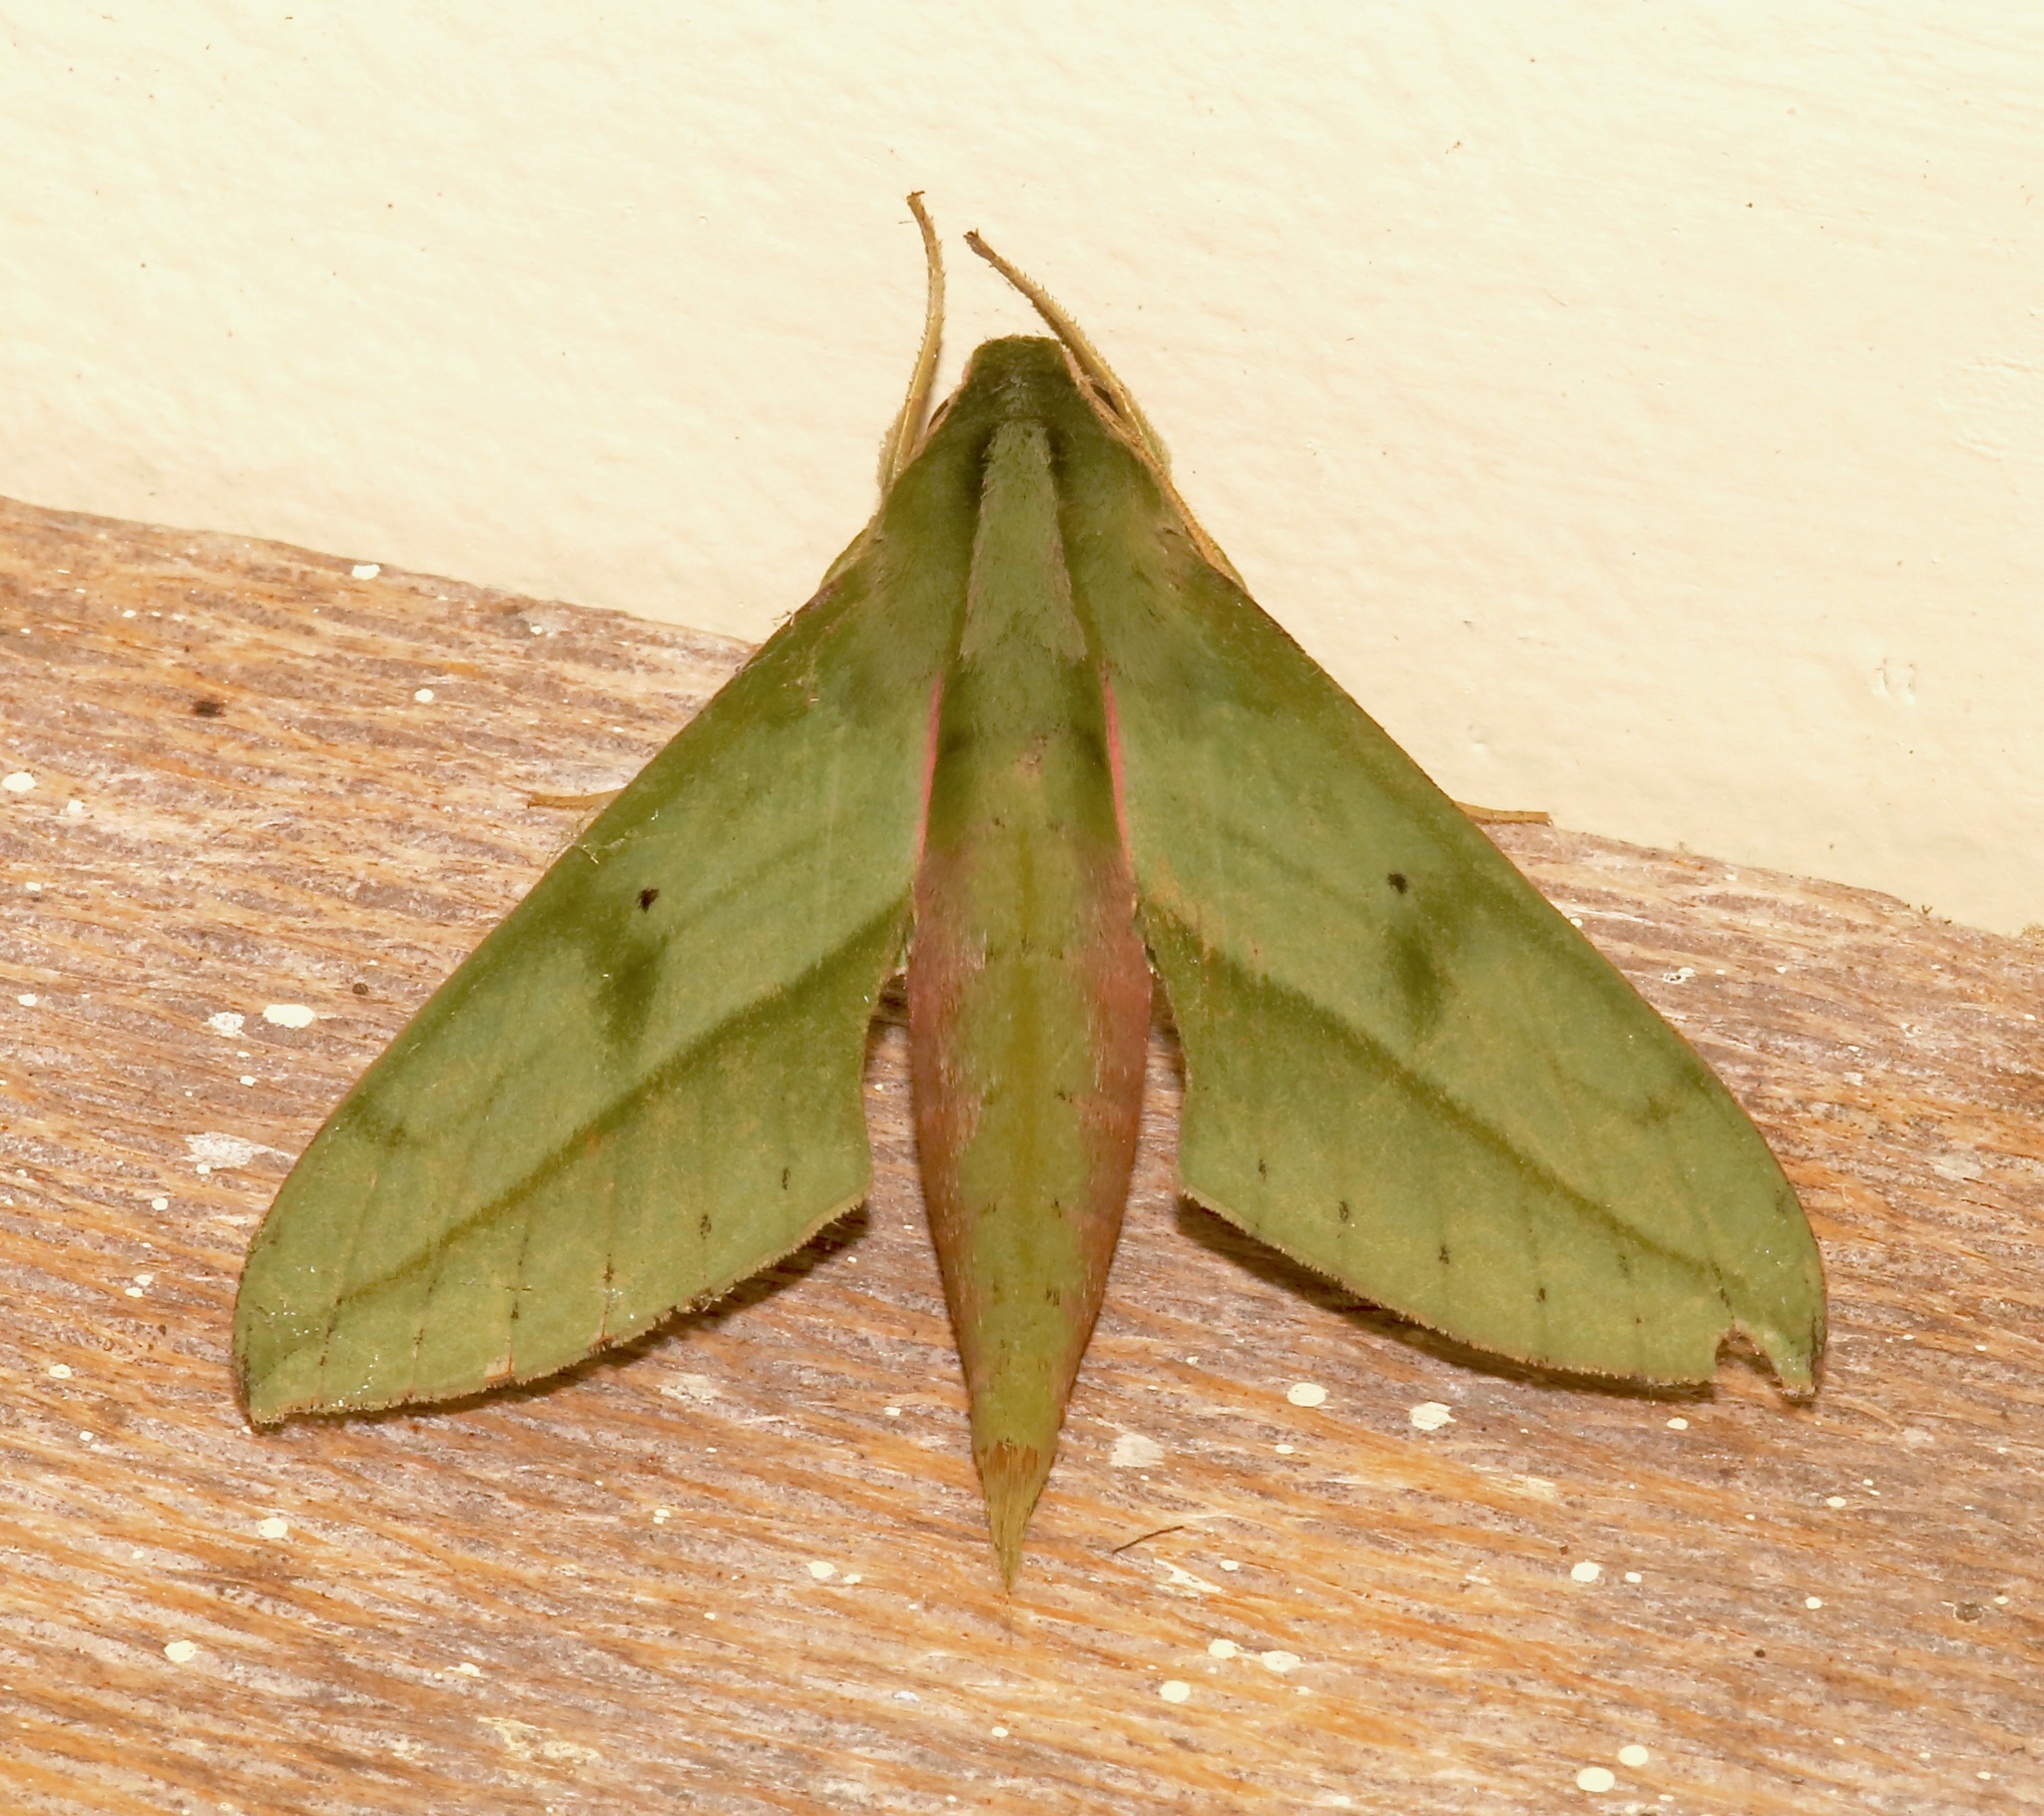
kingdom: Animalia
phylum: Arthropoda
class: Insecta
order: Lepidoptera
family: Sphingidae
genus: Xylophanes
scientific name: Xylophanes rothschildi
